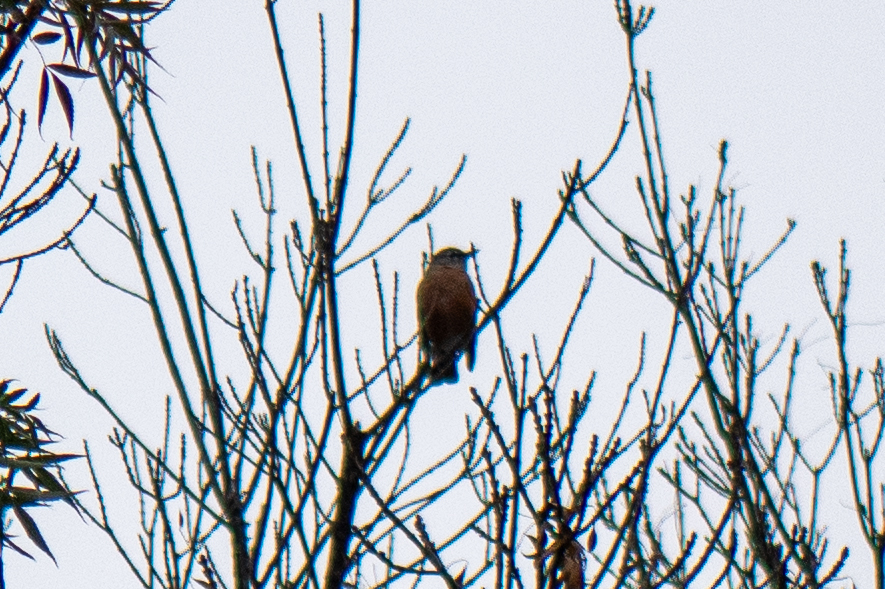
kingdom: Animalia
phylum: Chordata
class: Aves
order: Passeriformes
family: Turdidae
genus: Turdus
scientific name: Turdus migratorius
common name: American robin
